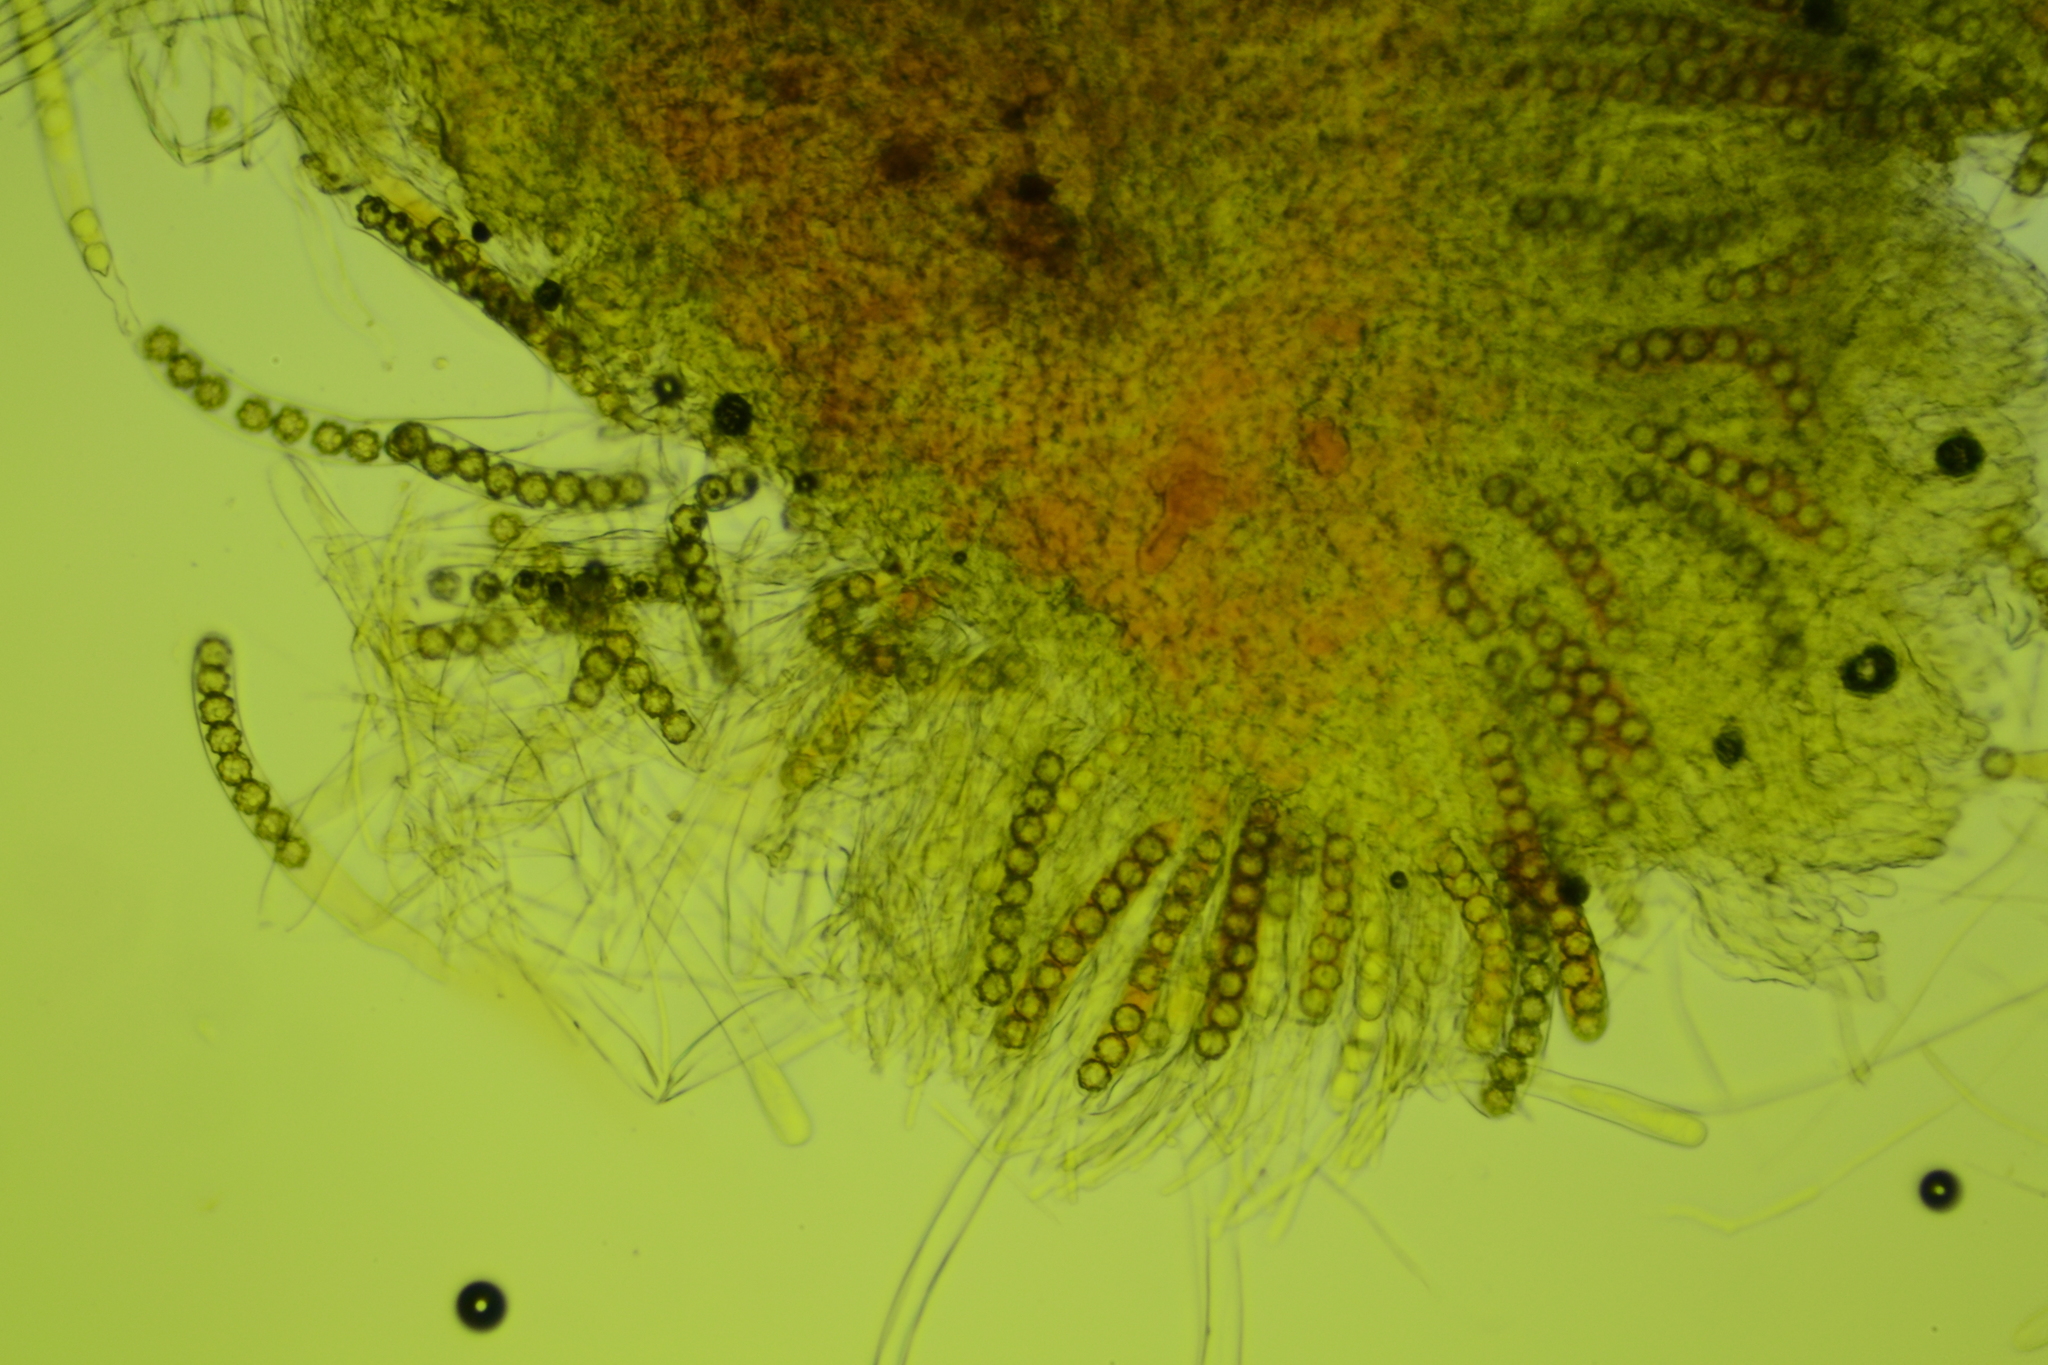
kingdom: Fungi
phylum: Ascomycota
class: Pezizomycetes
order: Pezizales
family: Pyronemataceae
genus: Octospora
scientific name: Octospora tuberculata
